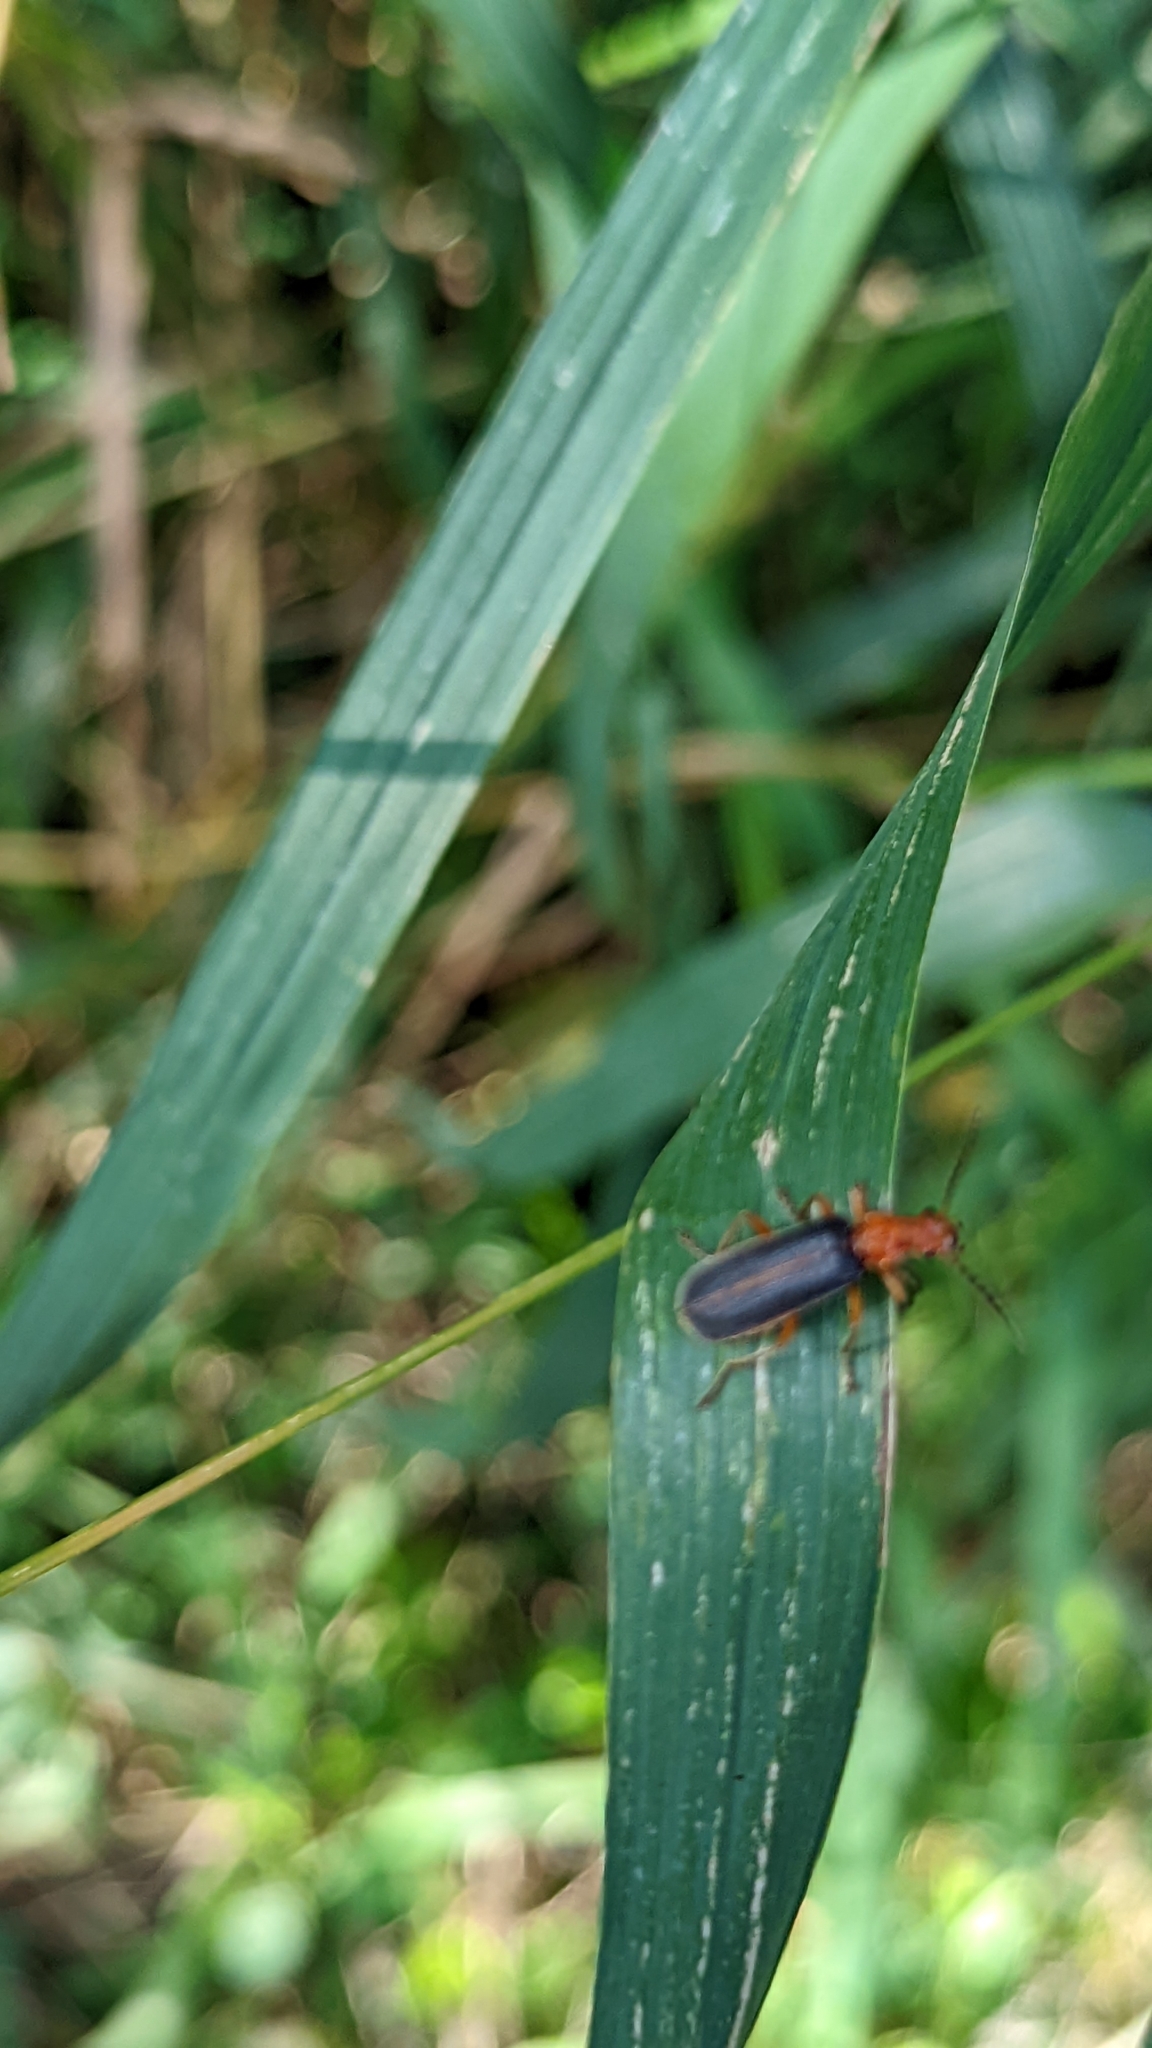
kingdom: Animalia
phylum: Arthropoda
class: Insecta
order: Coleoptera
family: Cantharidae
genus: Podabrus
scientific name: Podabrus tomentosus
